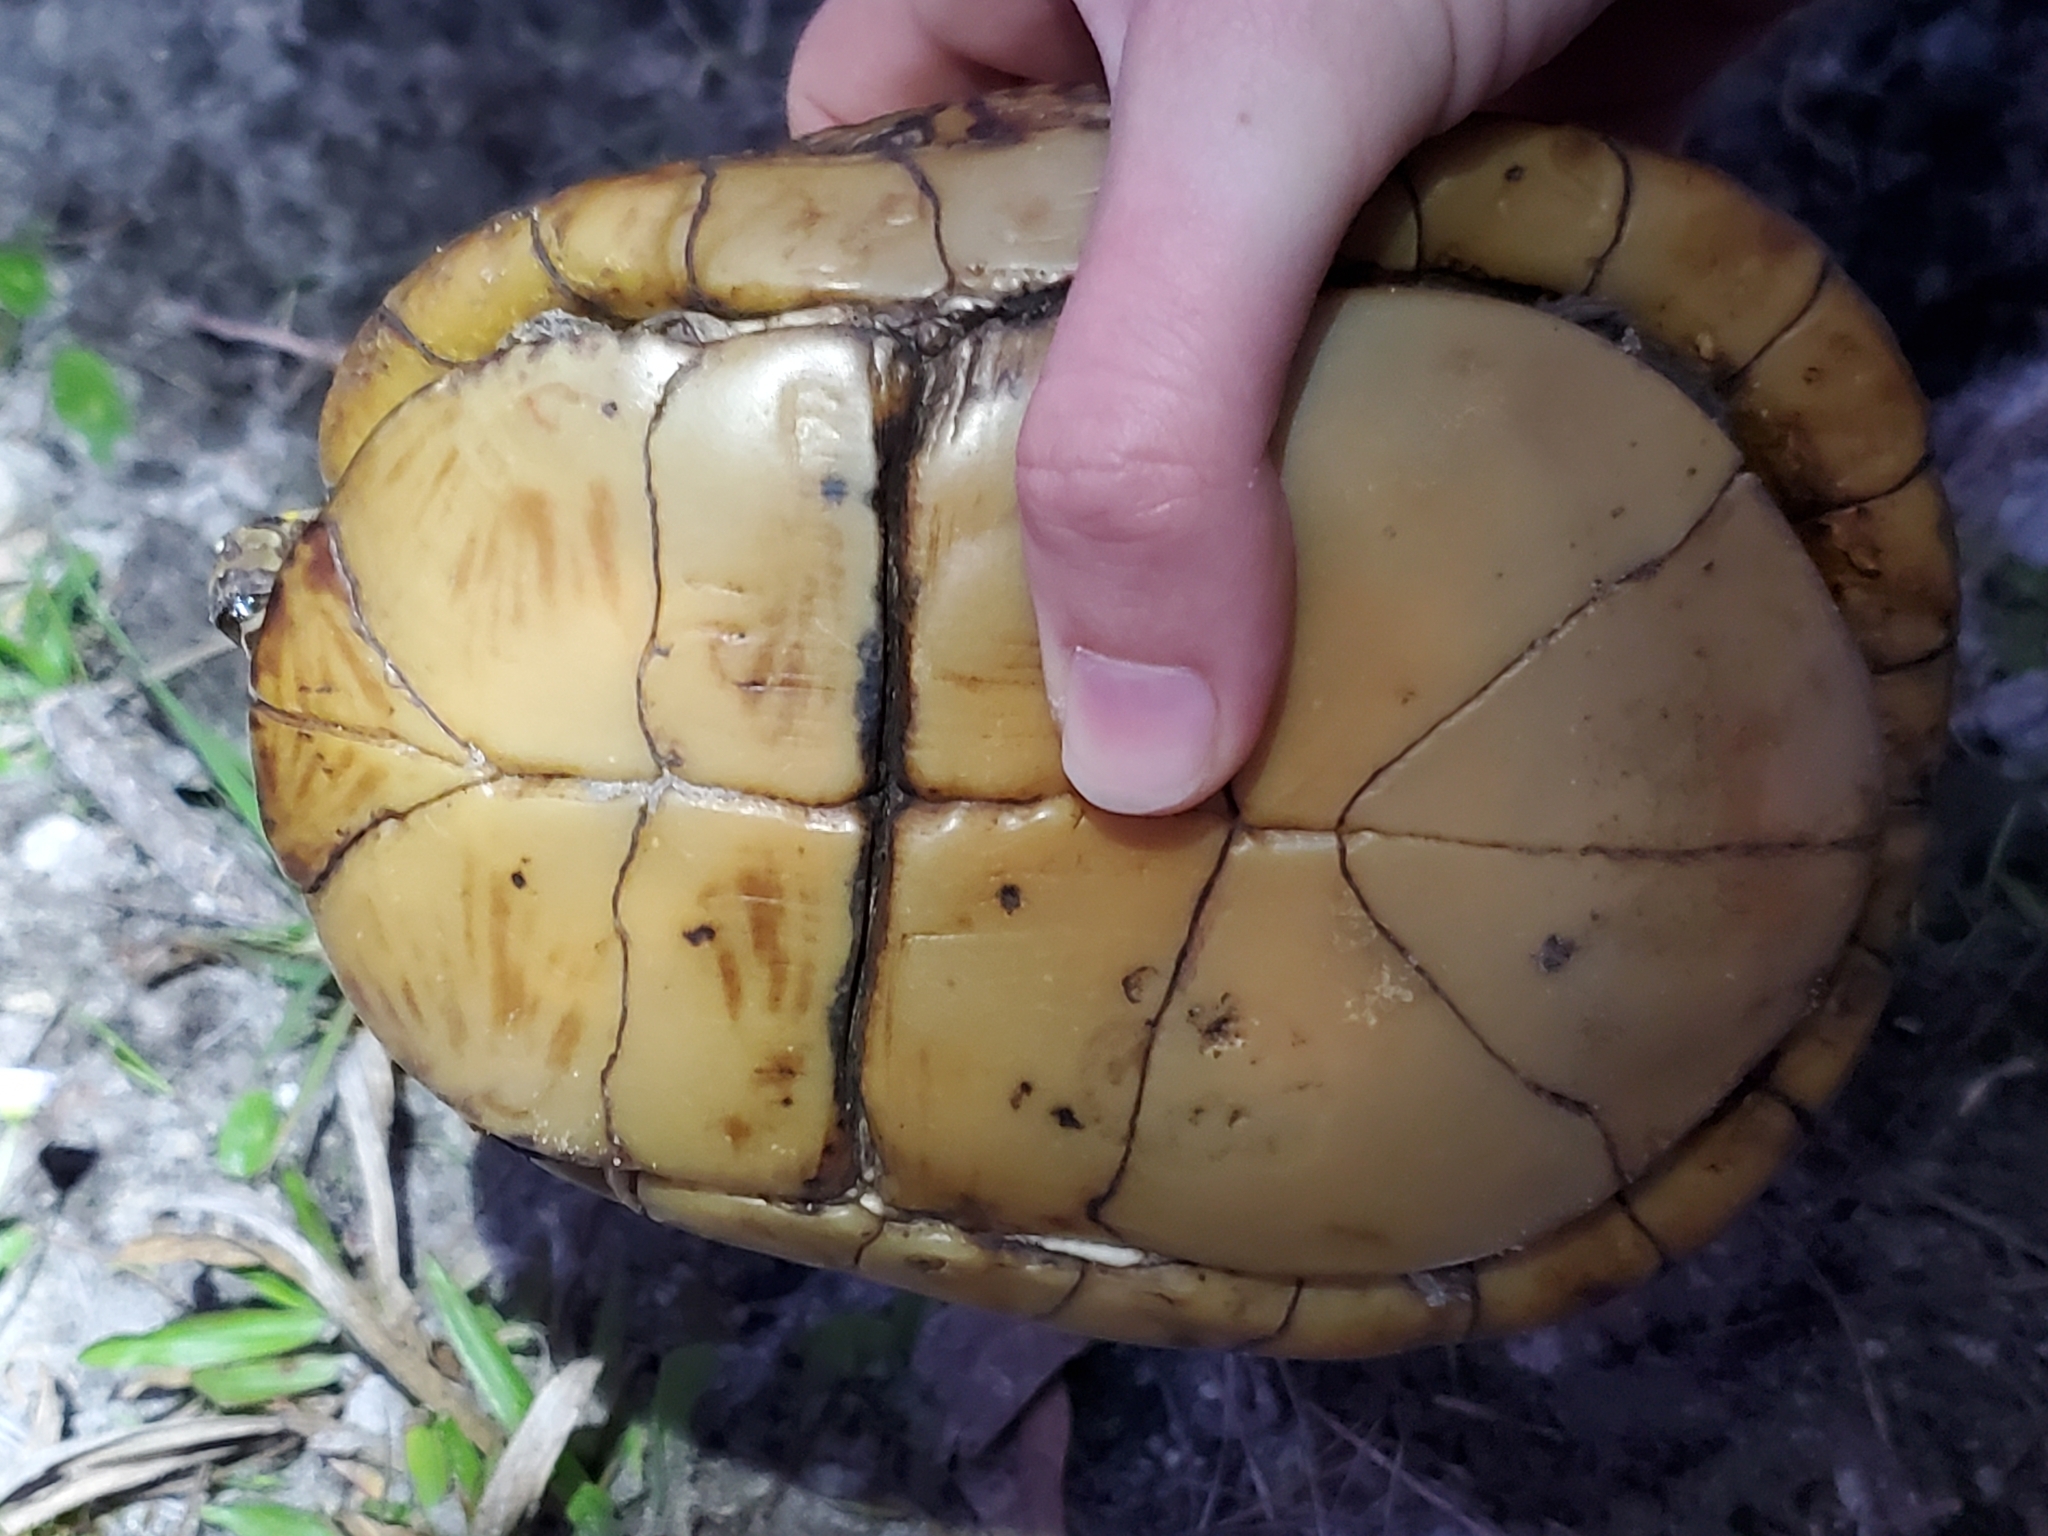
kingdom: Animalia
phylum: Chordata
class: Testudines
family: Emydidae
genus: Terrapene
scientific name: Terrapene carolina
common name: Common box turtle
